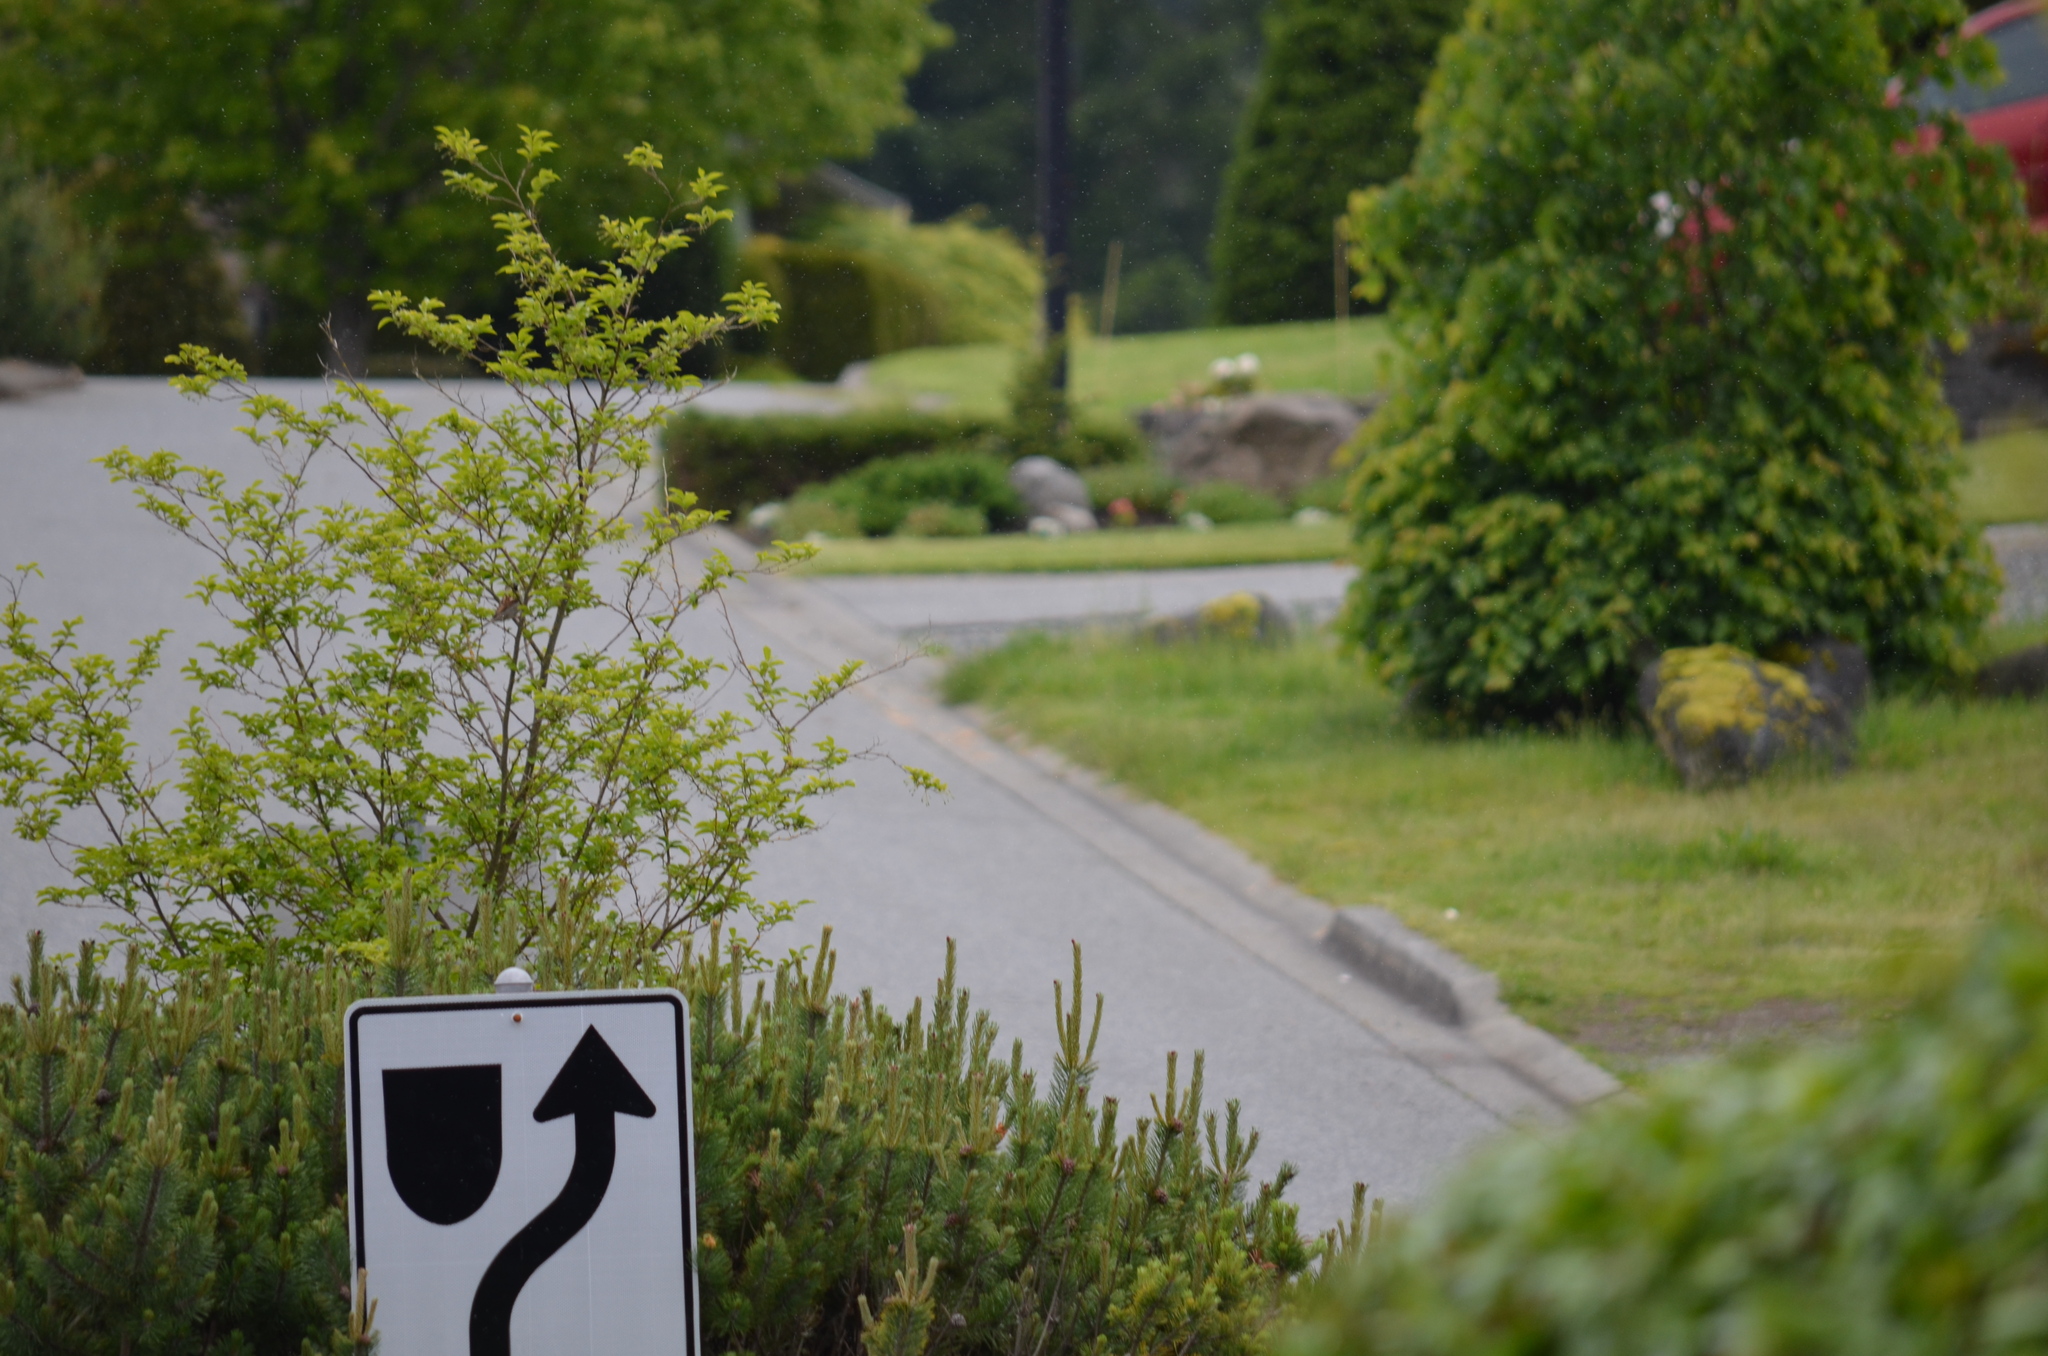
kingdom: Animalia
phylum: Chordata
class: Aves
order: Passeriformes
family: Passeridae
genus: Passer
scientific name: Passer domesticus
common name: House sparrow
